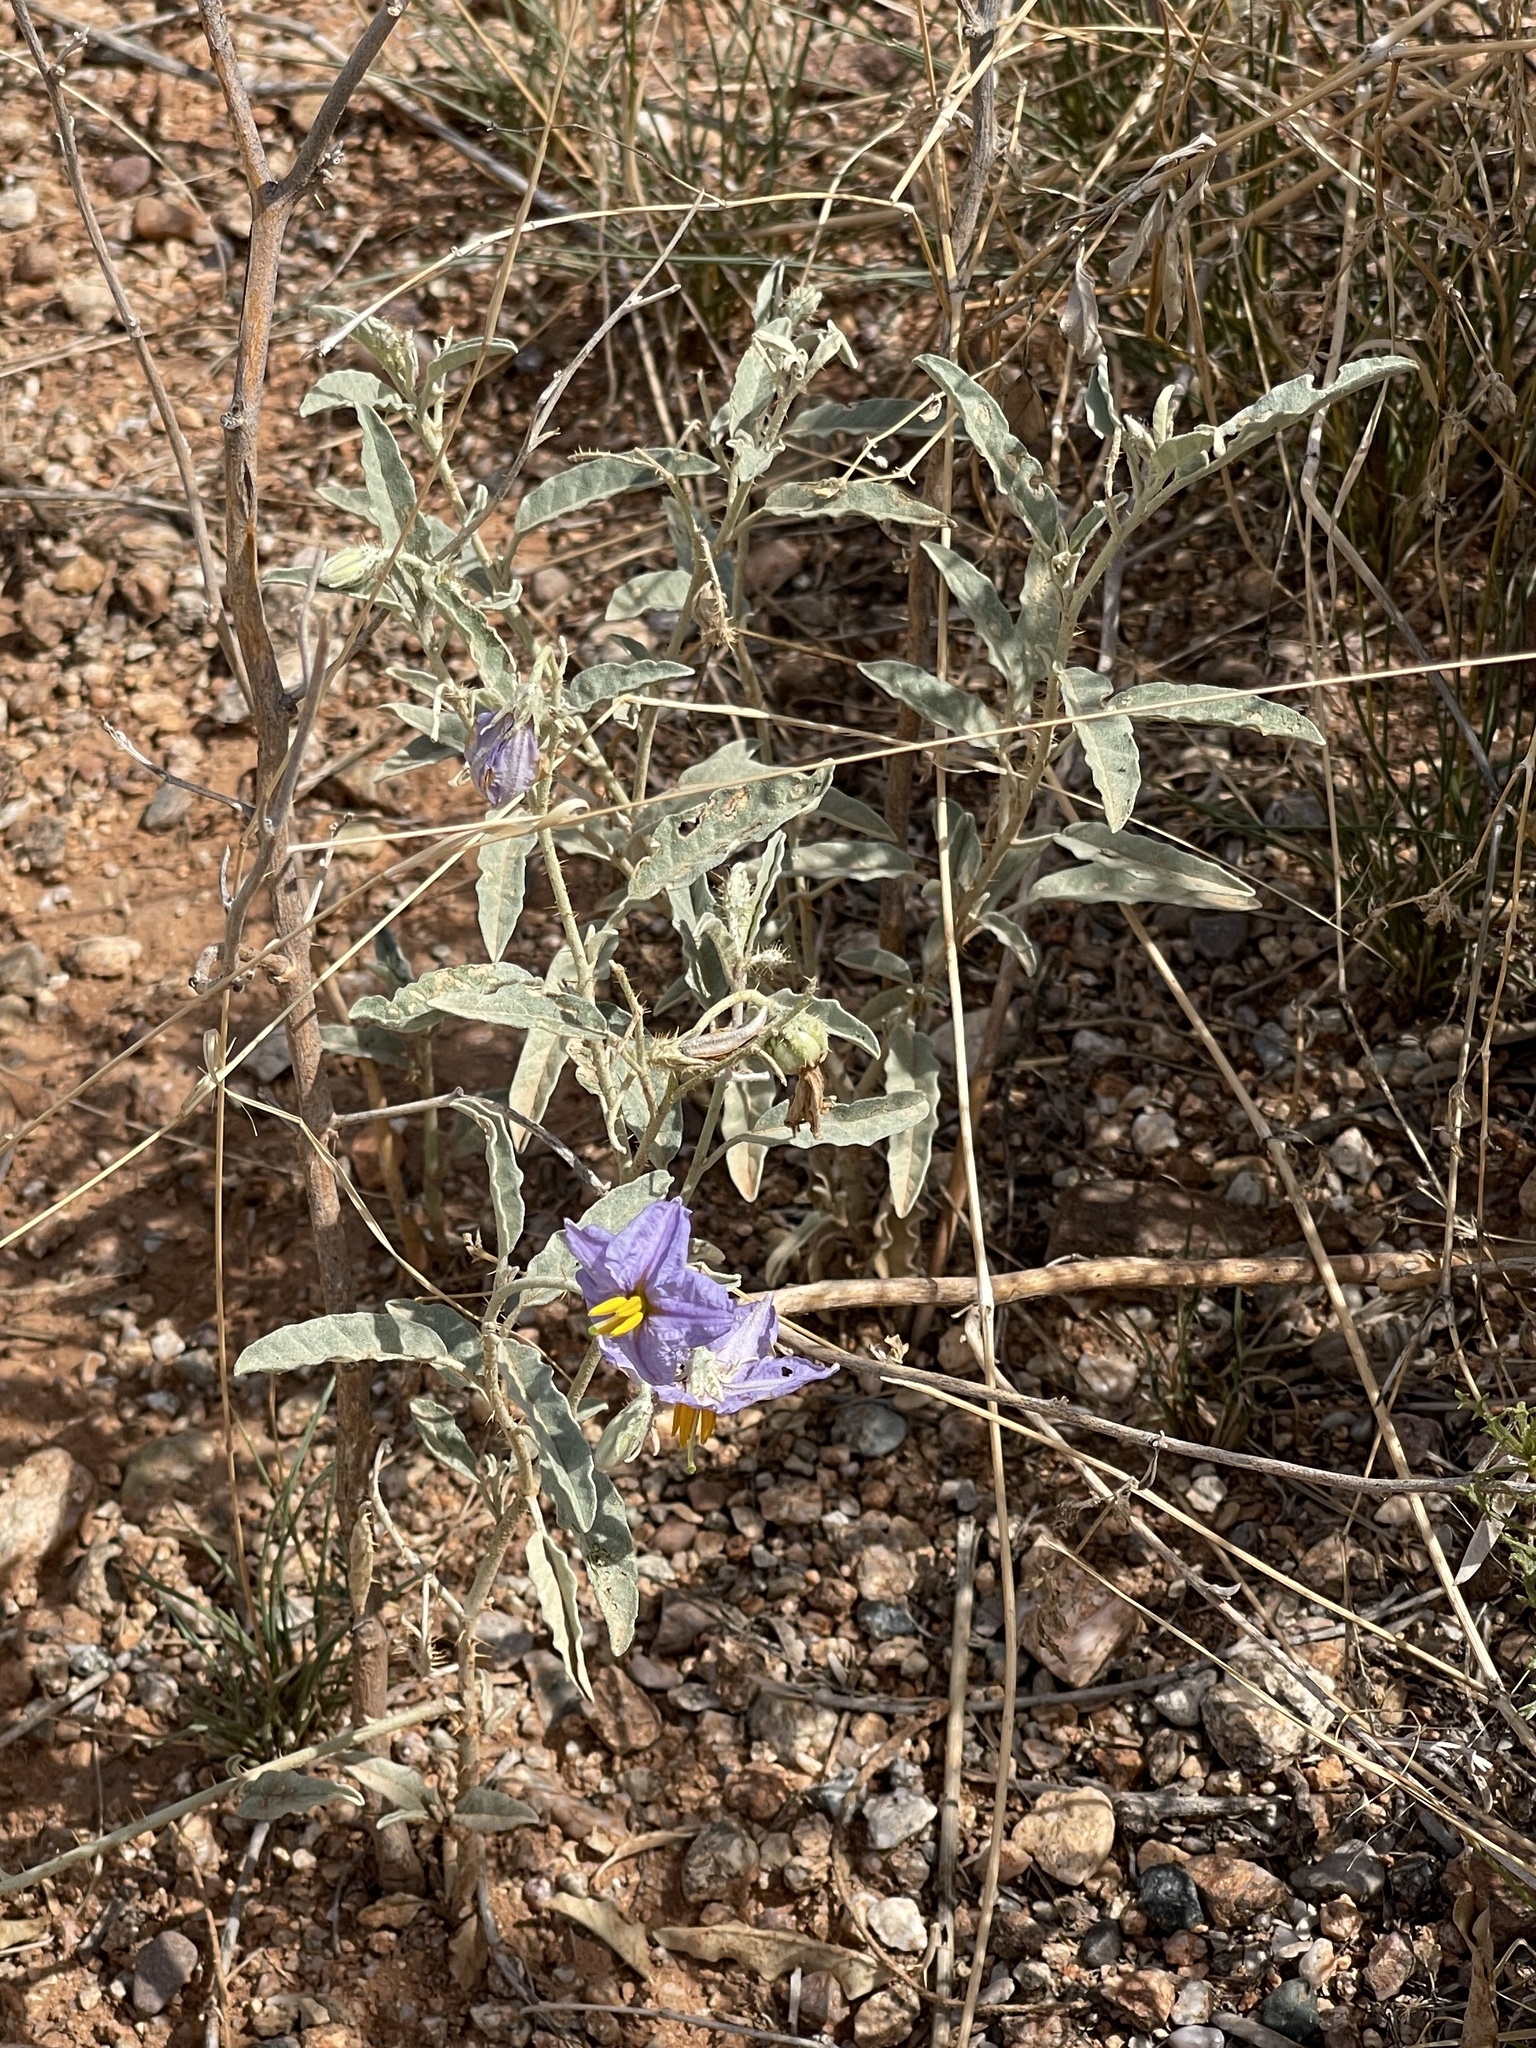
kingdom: Plantae
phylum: Tracheophyta
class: Magnoliopsida
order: Solanales
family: Solanaceae
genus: Solanum
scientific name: Solanum elaeagnifolium
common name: Silverleaf nightshade
